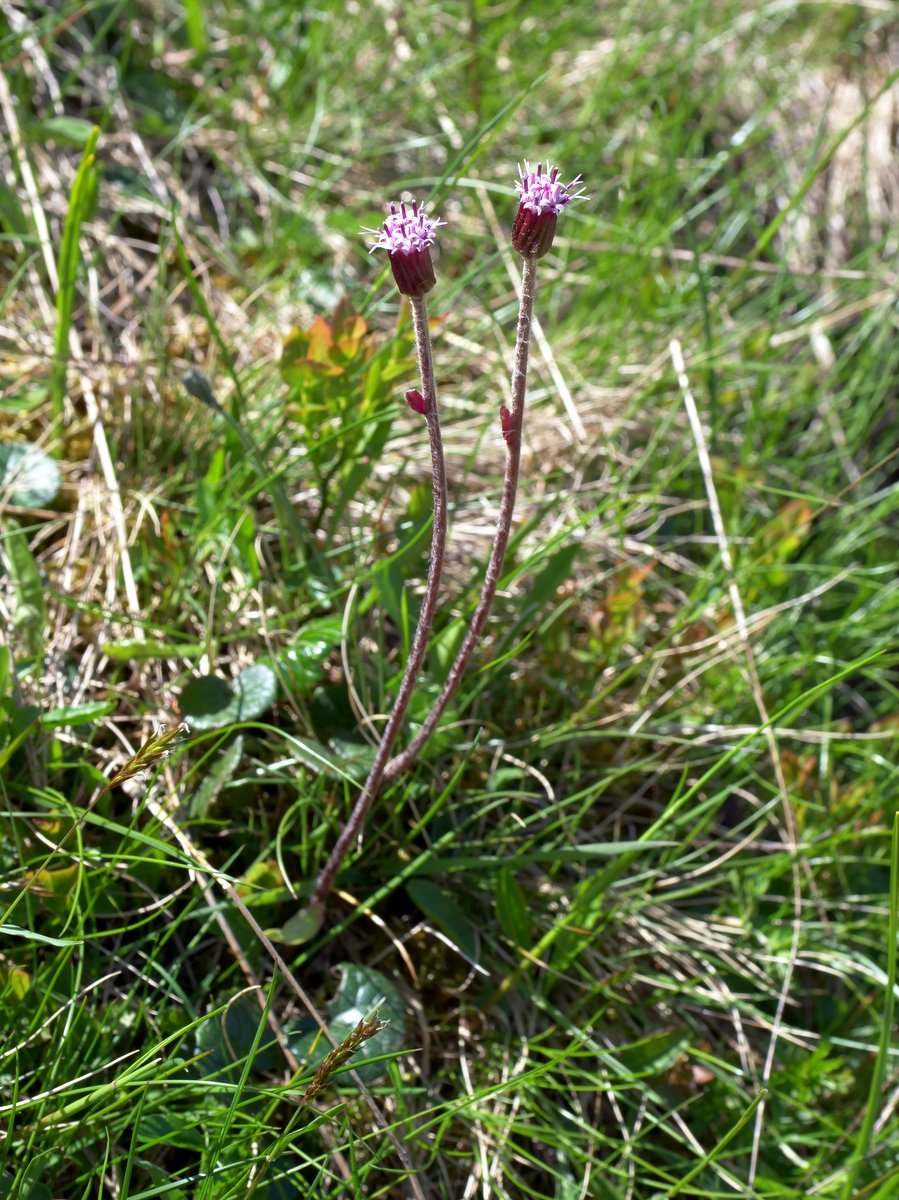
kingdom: Plantae
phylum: Tracheophyta
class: Magnoliopsida
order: Asterales
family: Asteraceae
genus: Homogyne
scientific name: Homogyne alpina
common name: Purple colt's-foot
